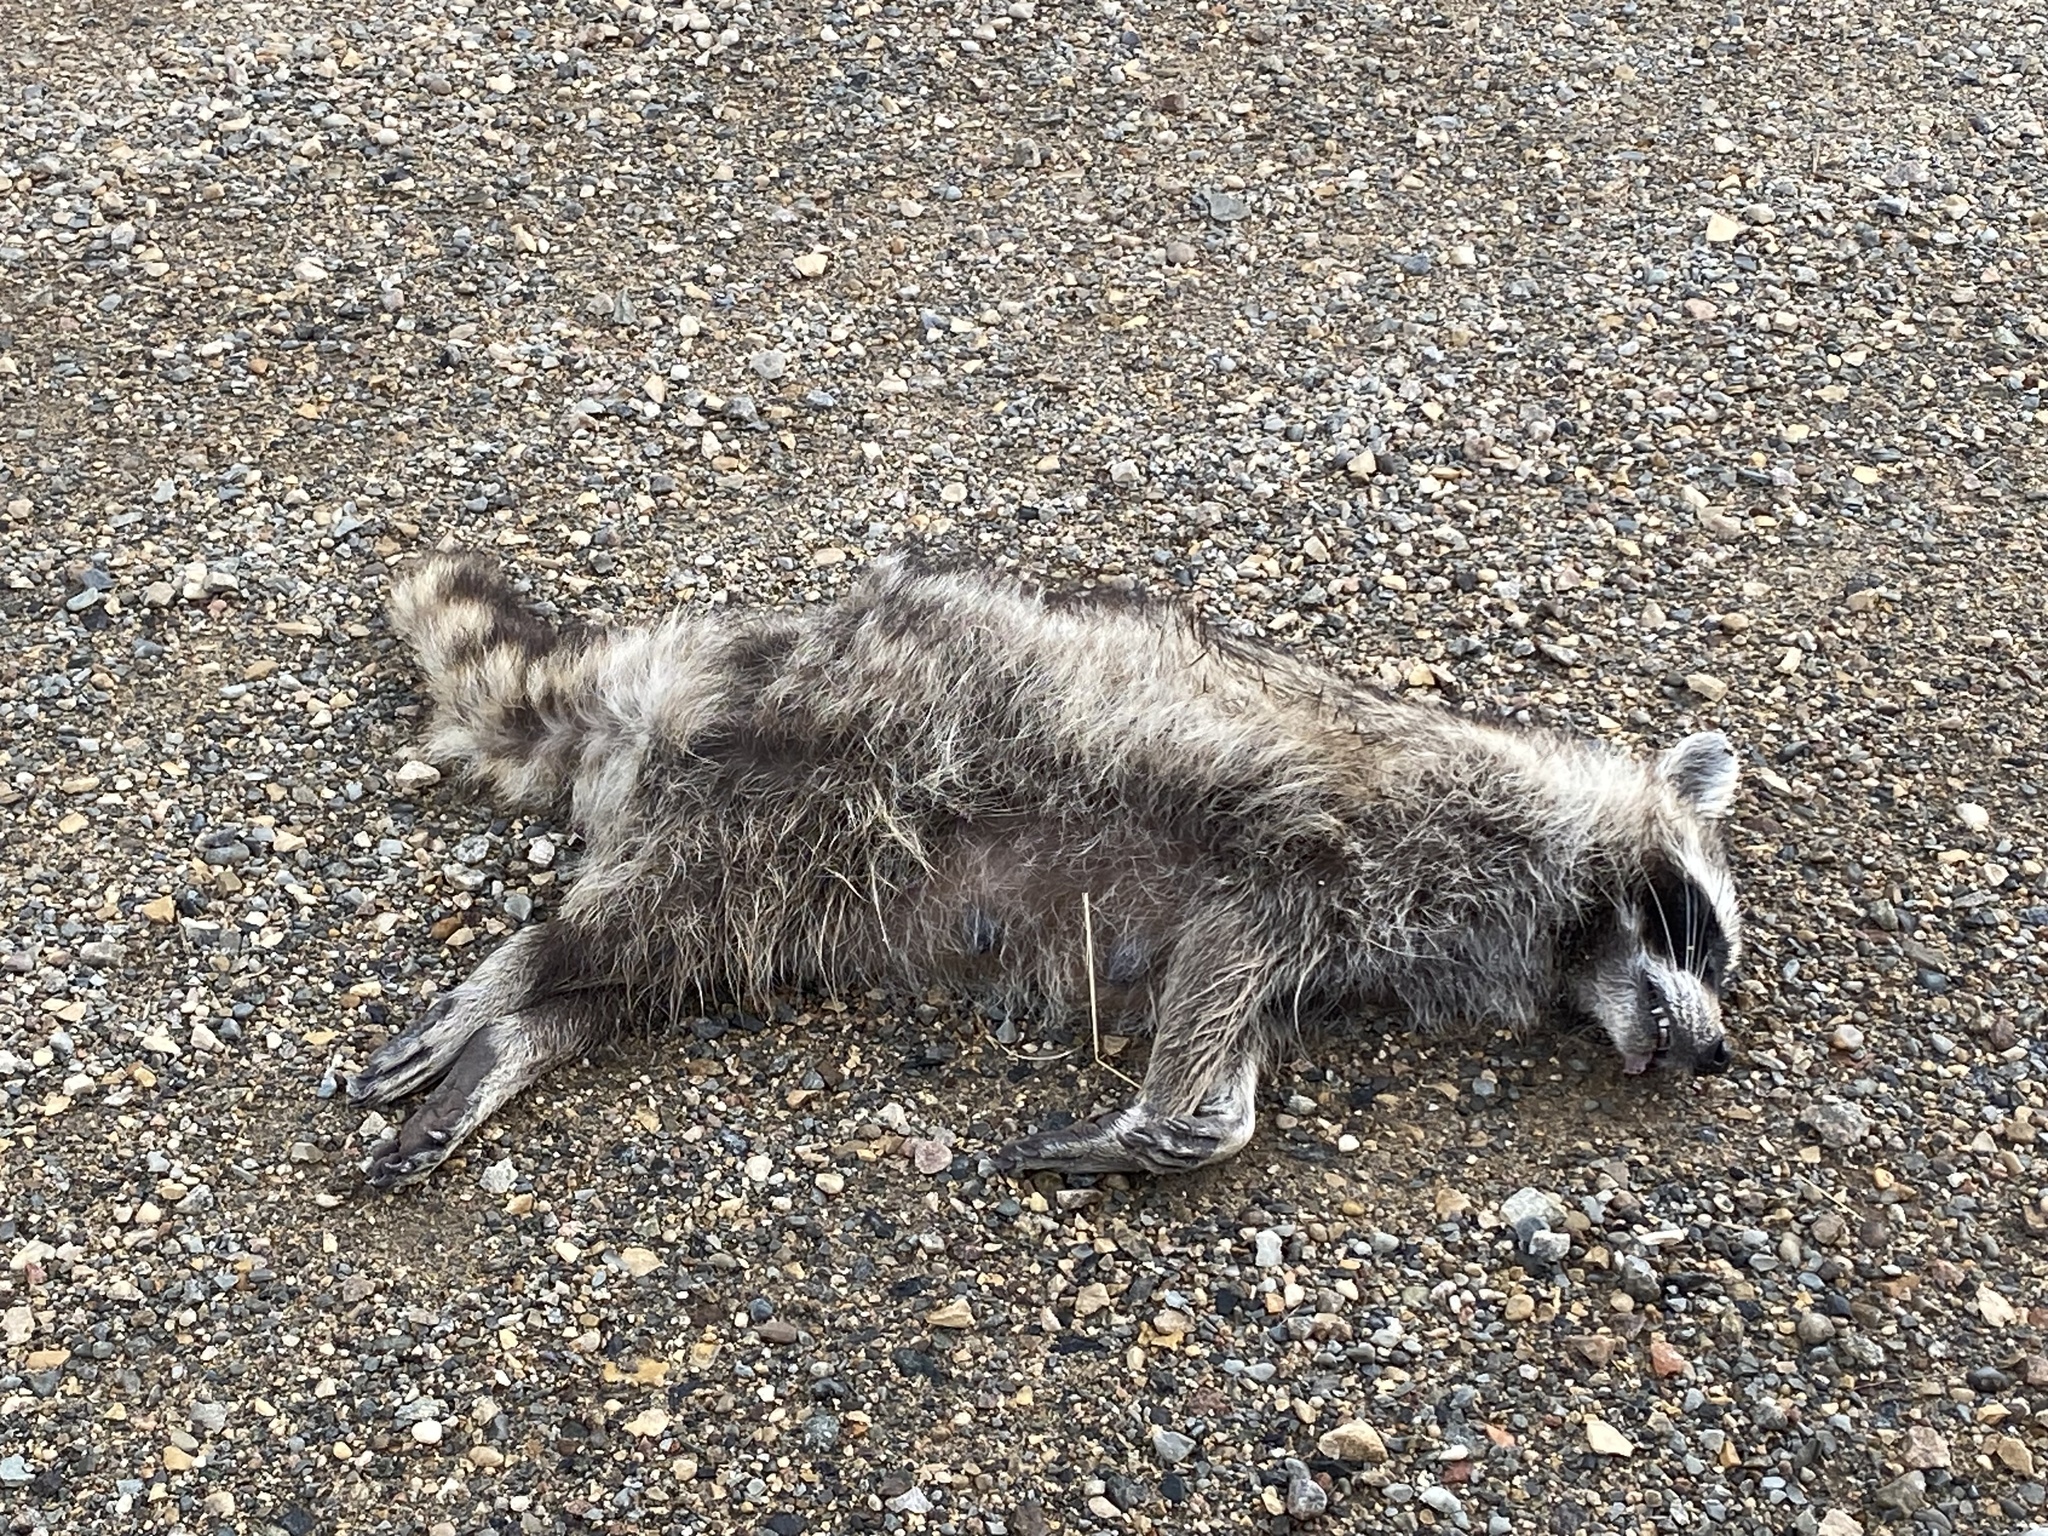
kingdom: Animalia
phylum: Chordata
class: Mammalia
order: Carnivora
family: Procyonidae
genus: Procyon
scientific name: Procyon lotor
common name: Raccoon
